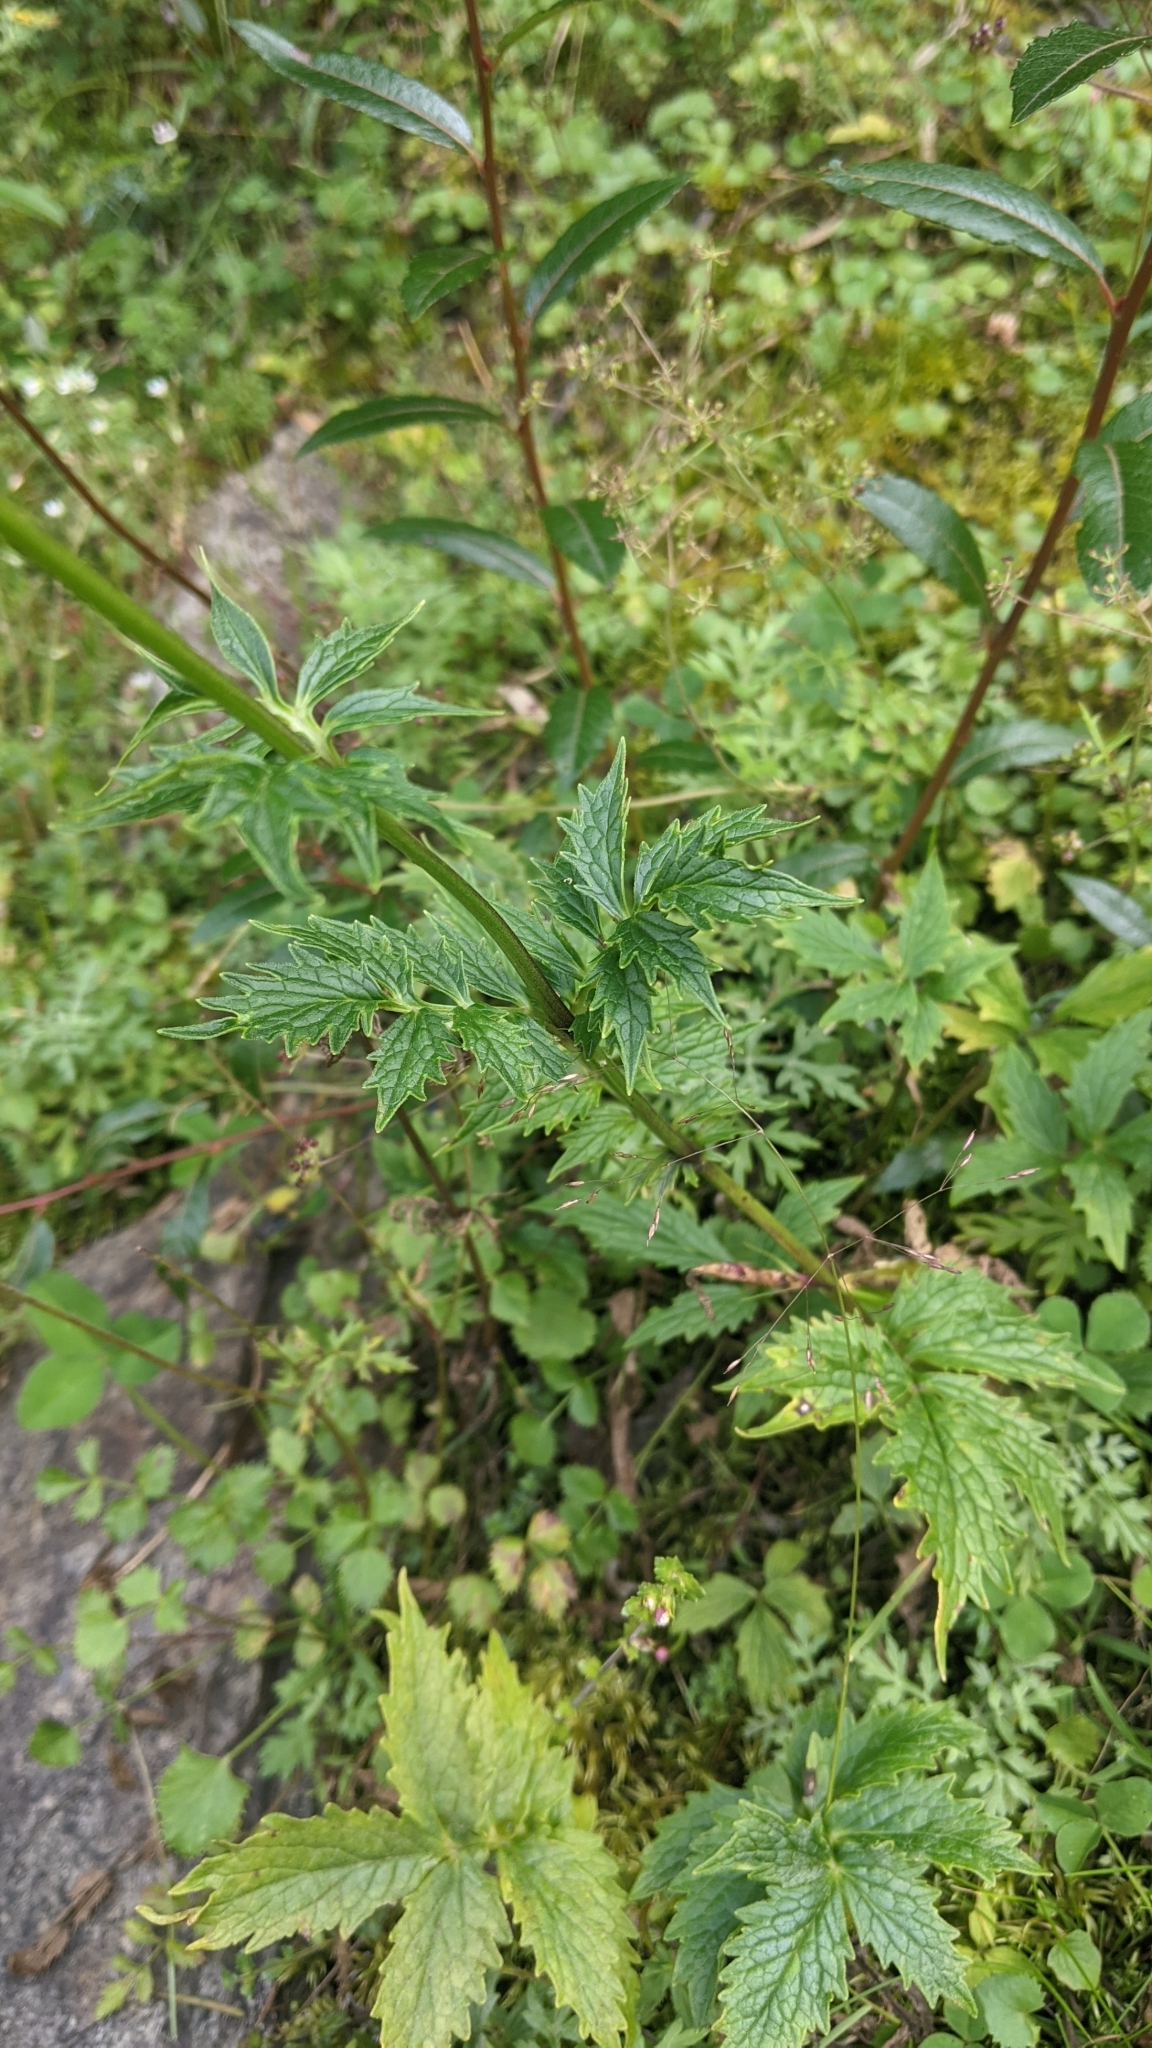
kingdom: Plantae
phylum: Tracheophyta
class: Magnoliopsida
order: Dipsacales
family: Caprifoliaceae
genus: Valeriana
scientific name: Valeriana officinalis
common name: Common valerian
